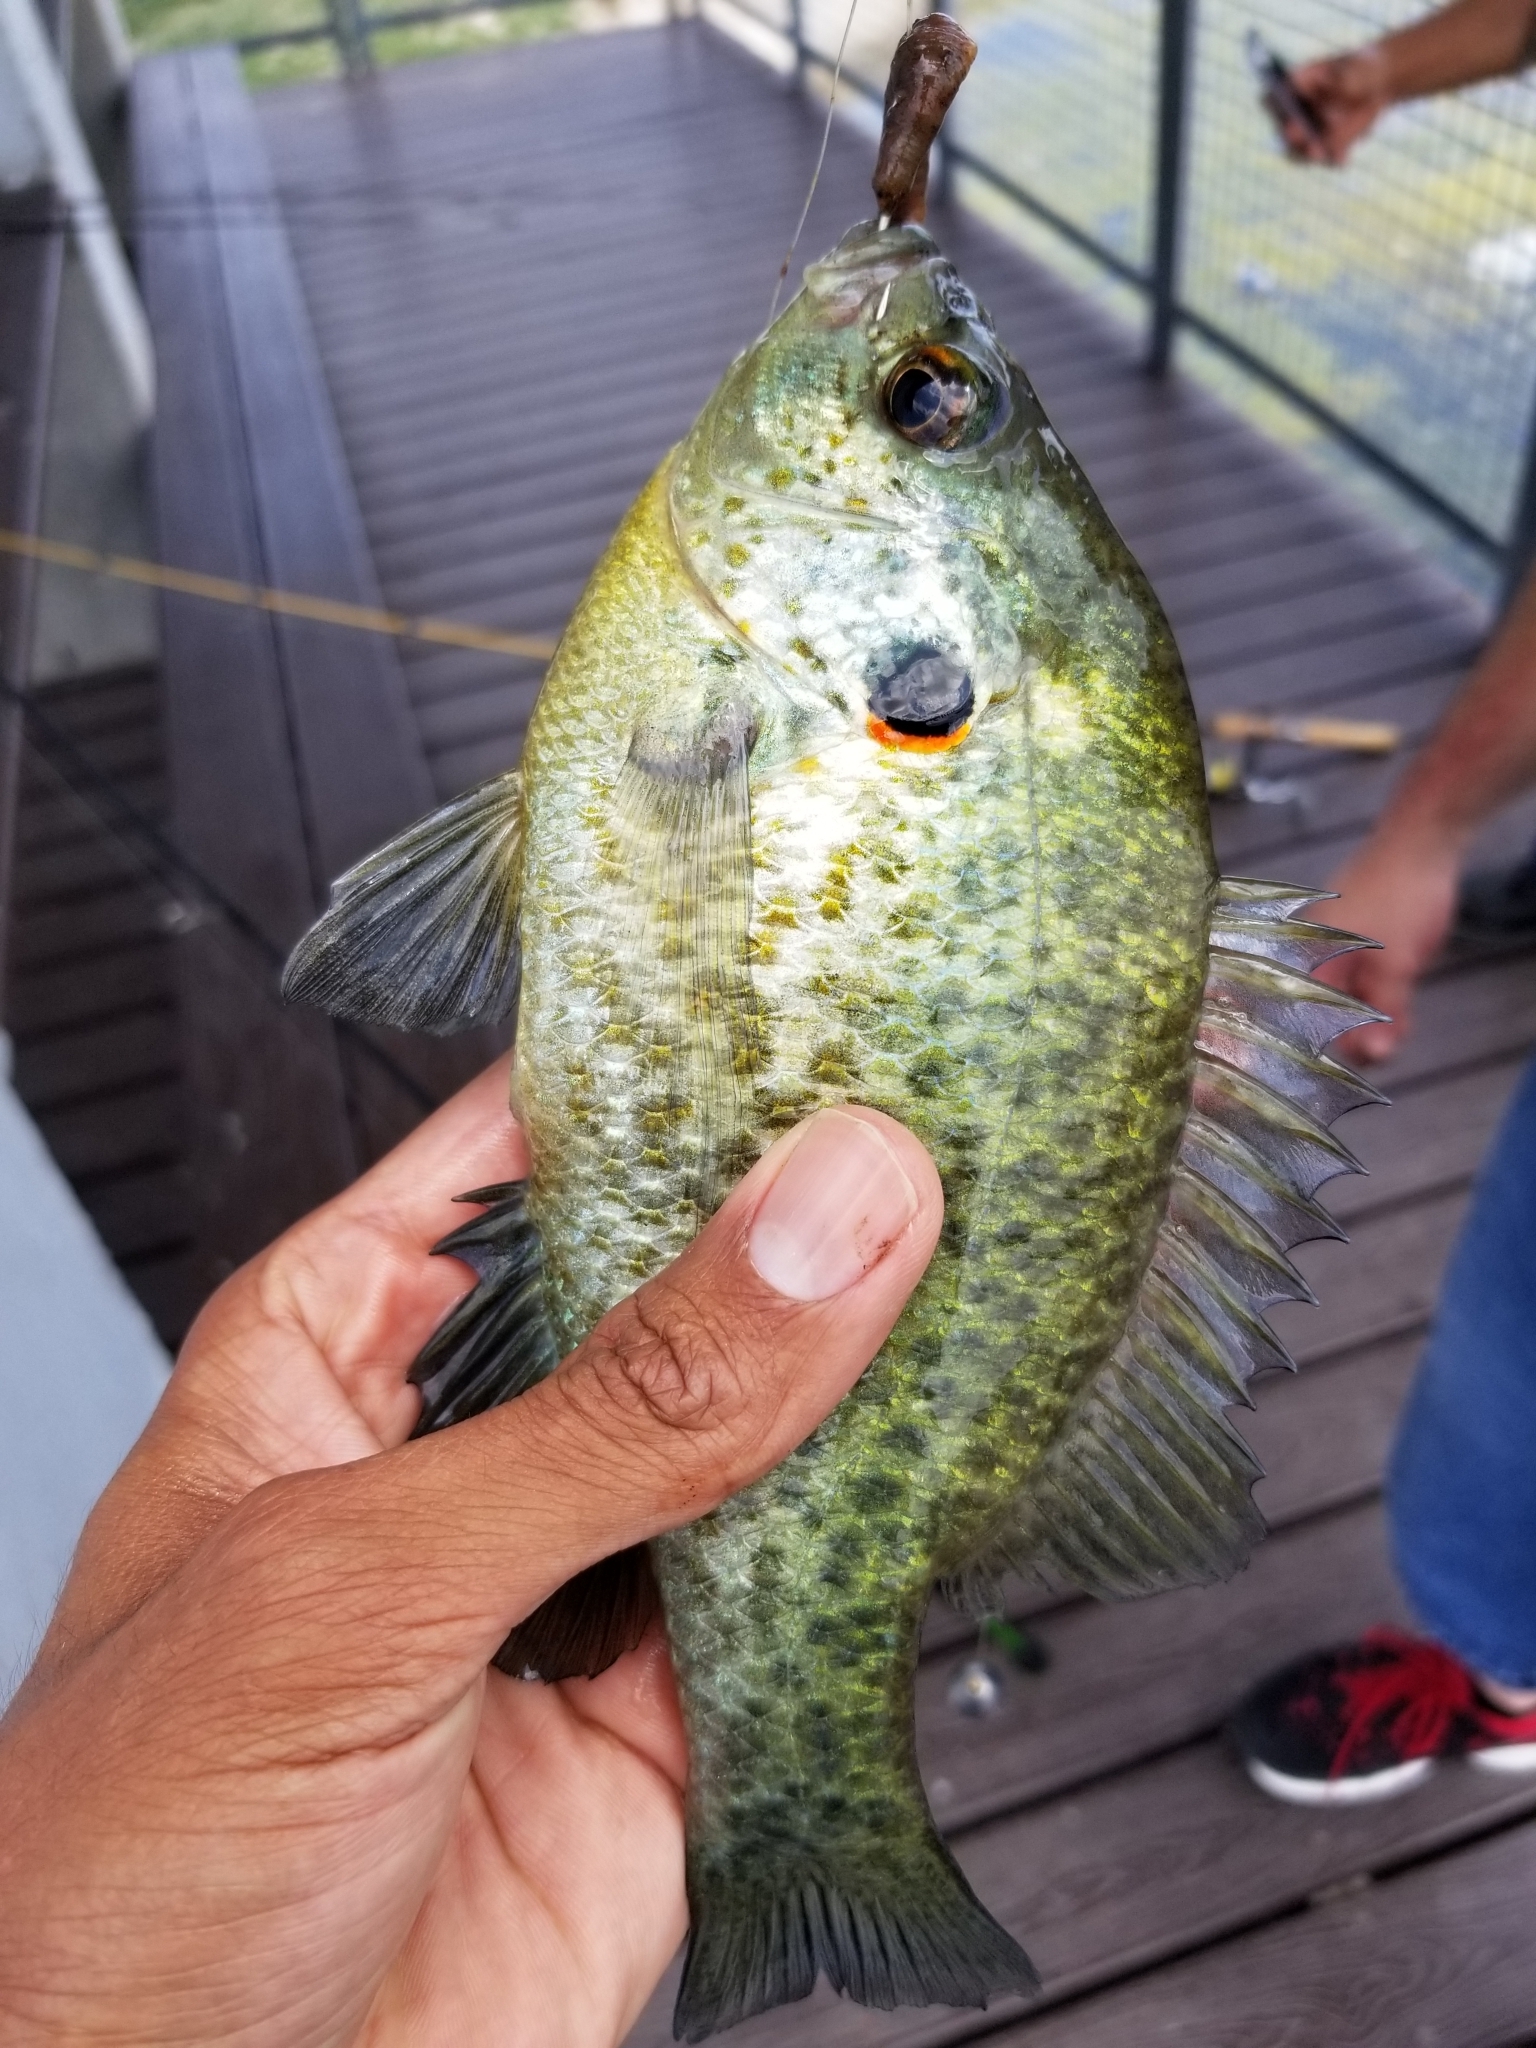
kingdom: Animalia
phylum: Chordata
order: Perciformes
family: Centrarchidae
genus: Lepomis
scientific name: Lepomis microlophus
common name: Redear sunfish
